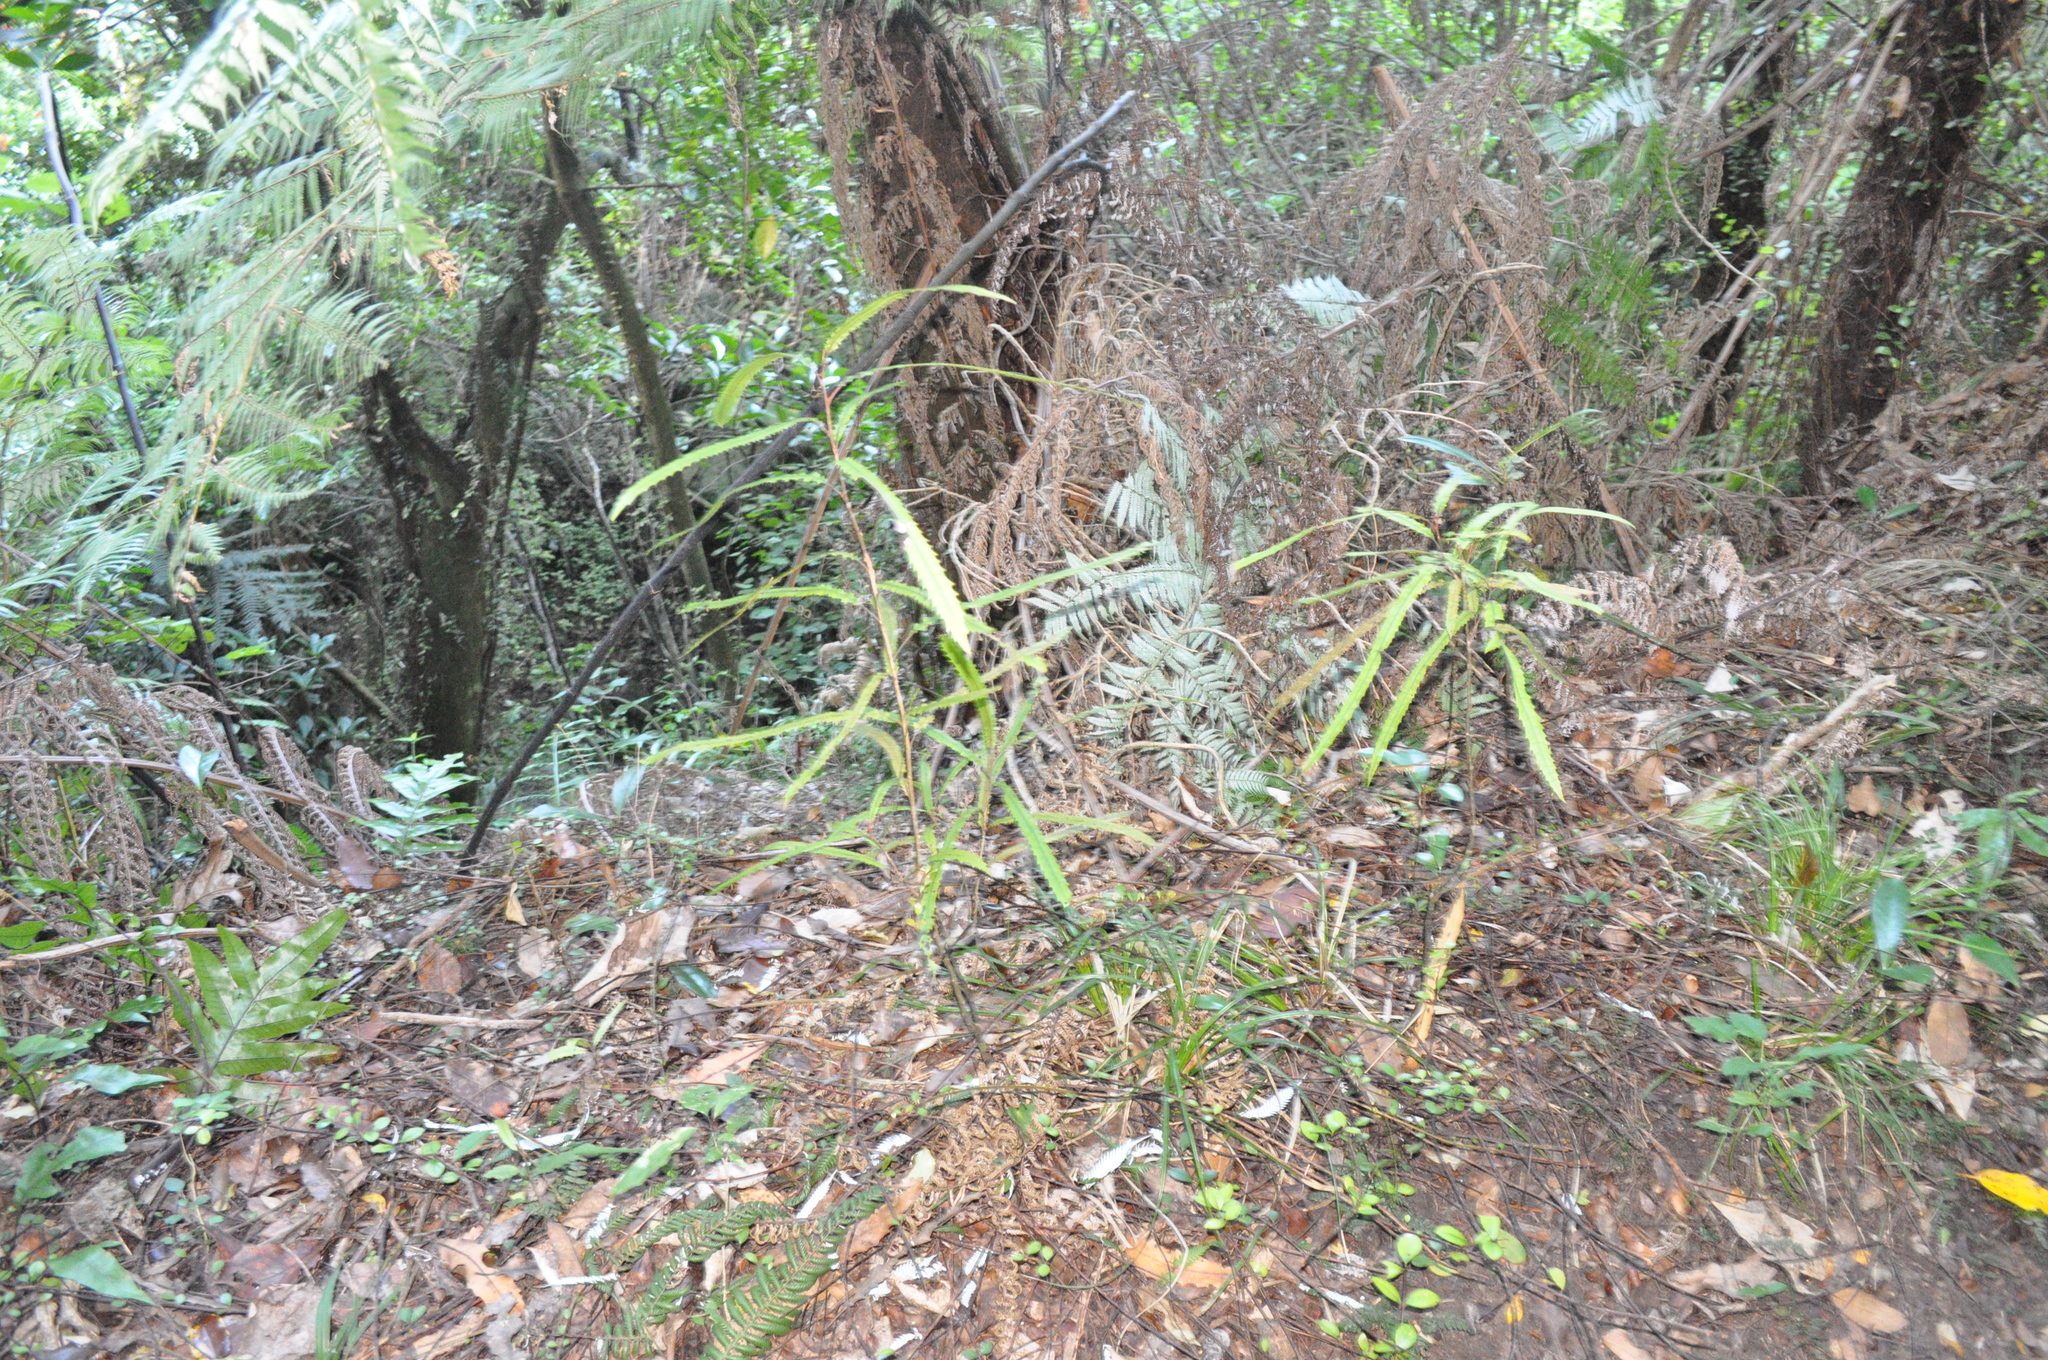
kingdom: Plantae
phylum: Tracheophyta
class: Magnoliopsida
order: Proteales
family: Proteaceae
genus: Knightia
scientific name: Knightia excelsa
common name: New zealand-honeysuckle
